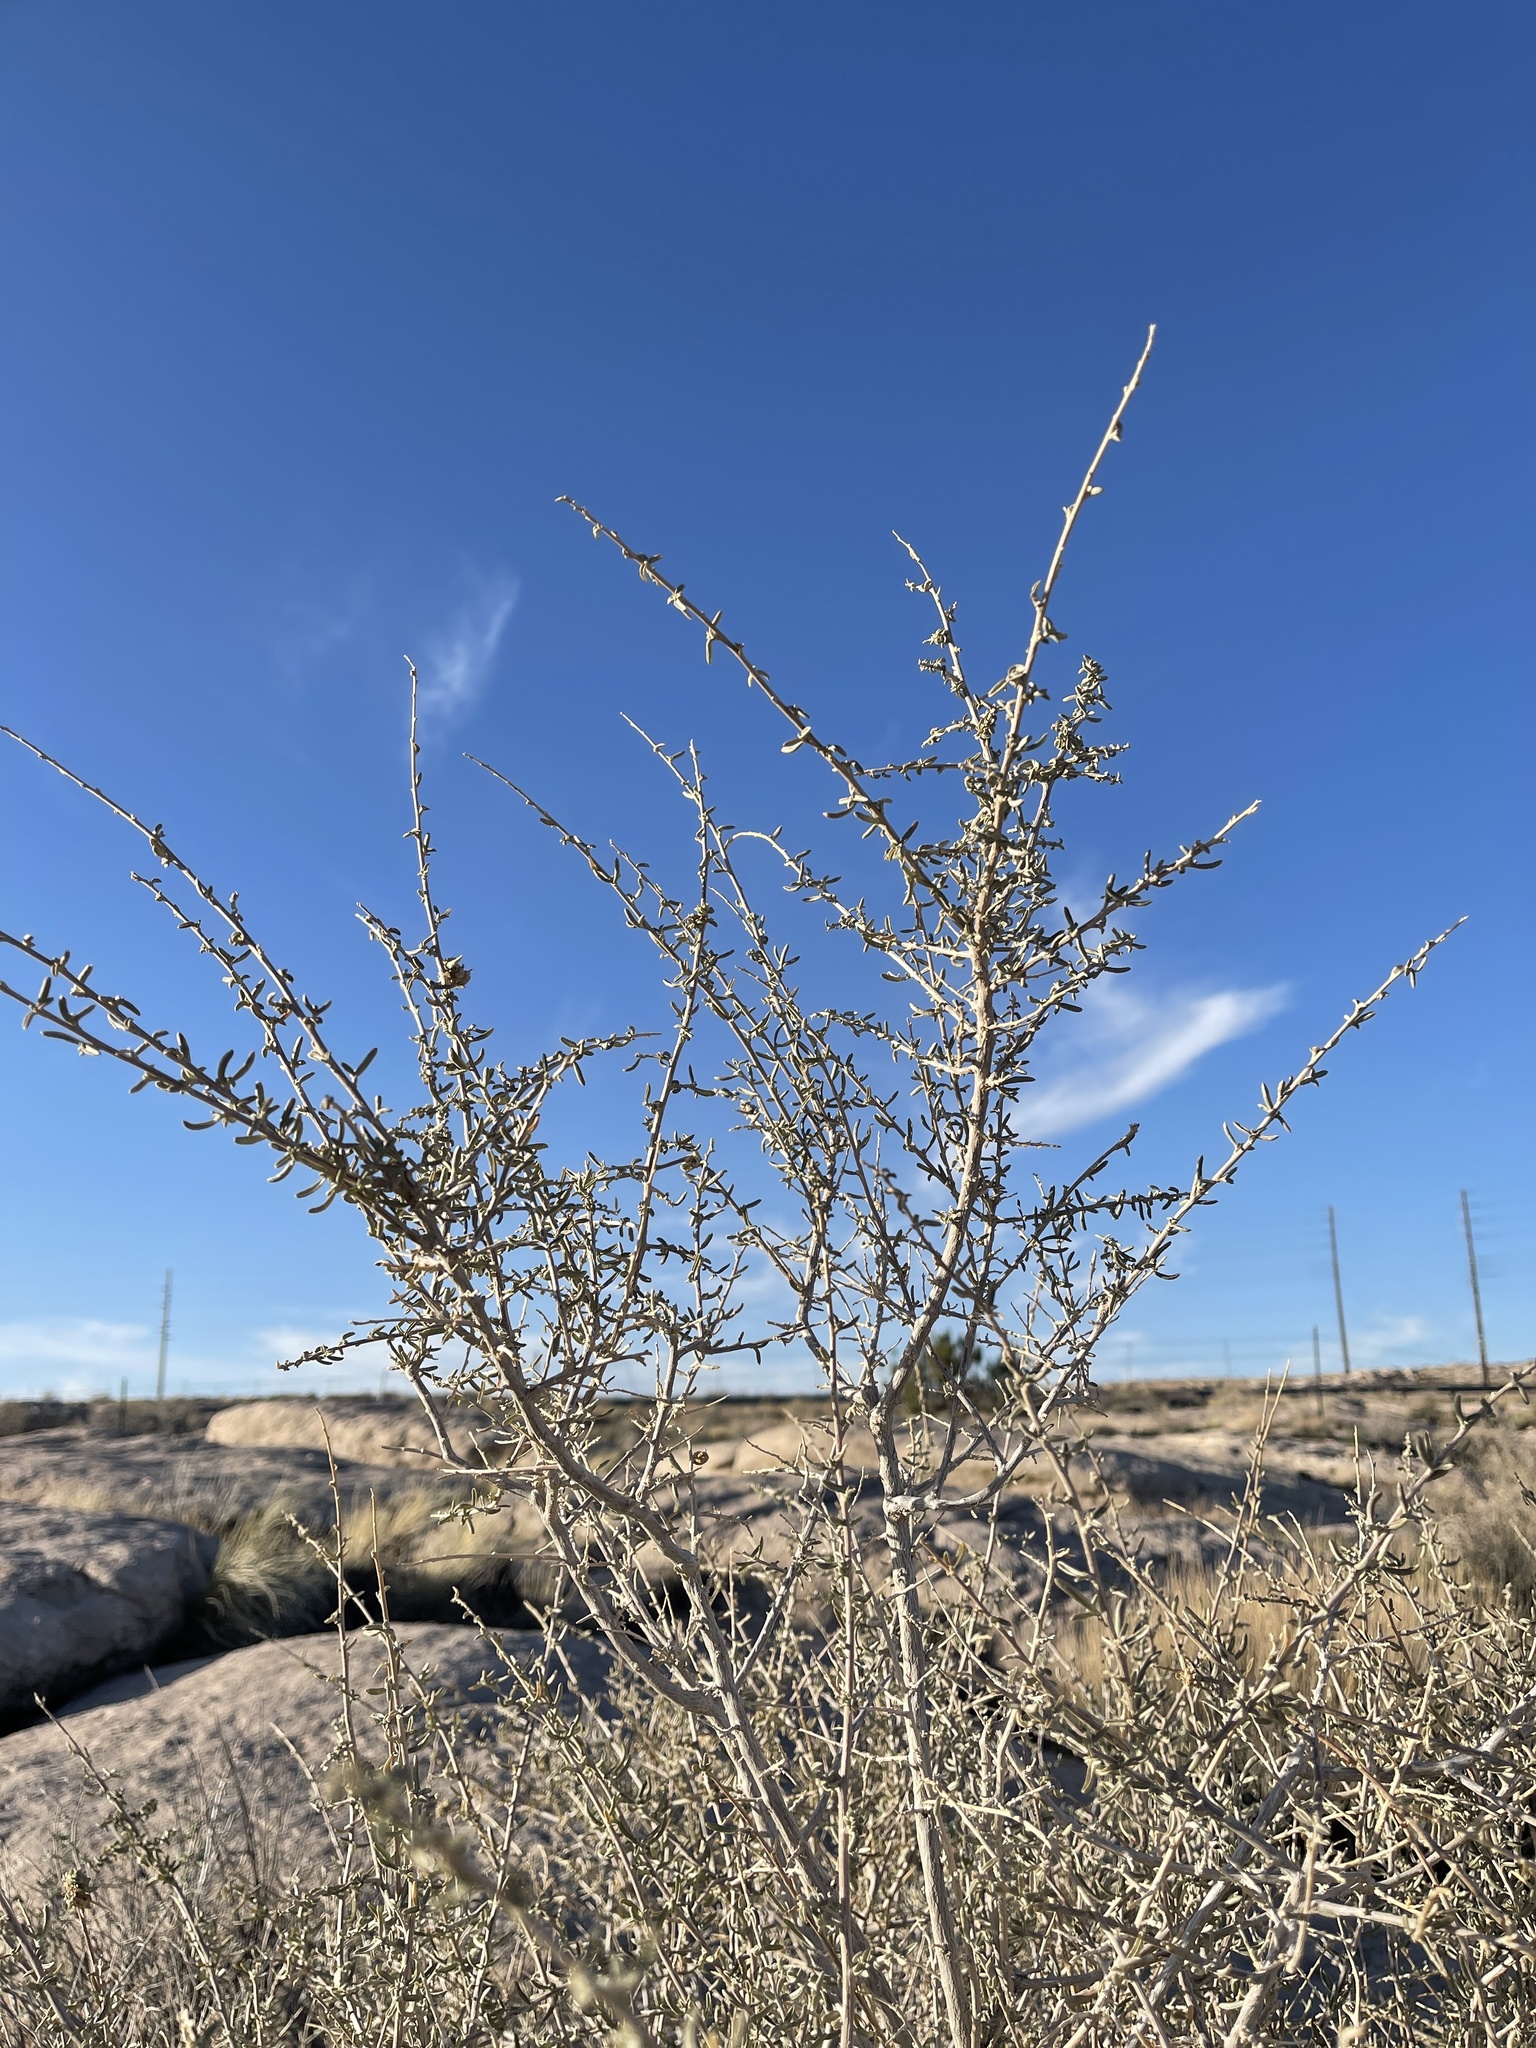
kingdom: Plantae
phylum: Tracheophyta
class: Magnoliopsida
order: Caryophyllales
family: Amaranthaceae
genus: Atriplex
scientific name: Atriplex canescens
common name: Four-wing saltbush
